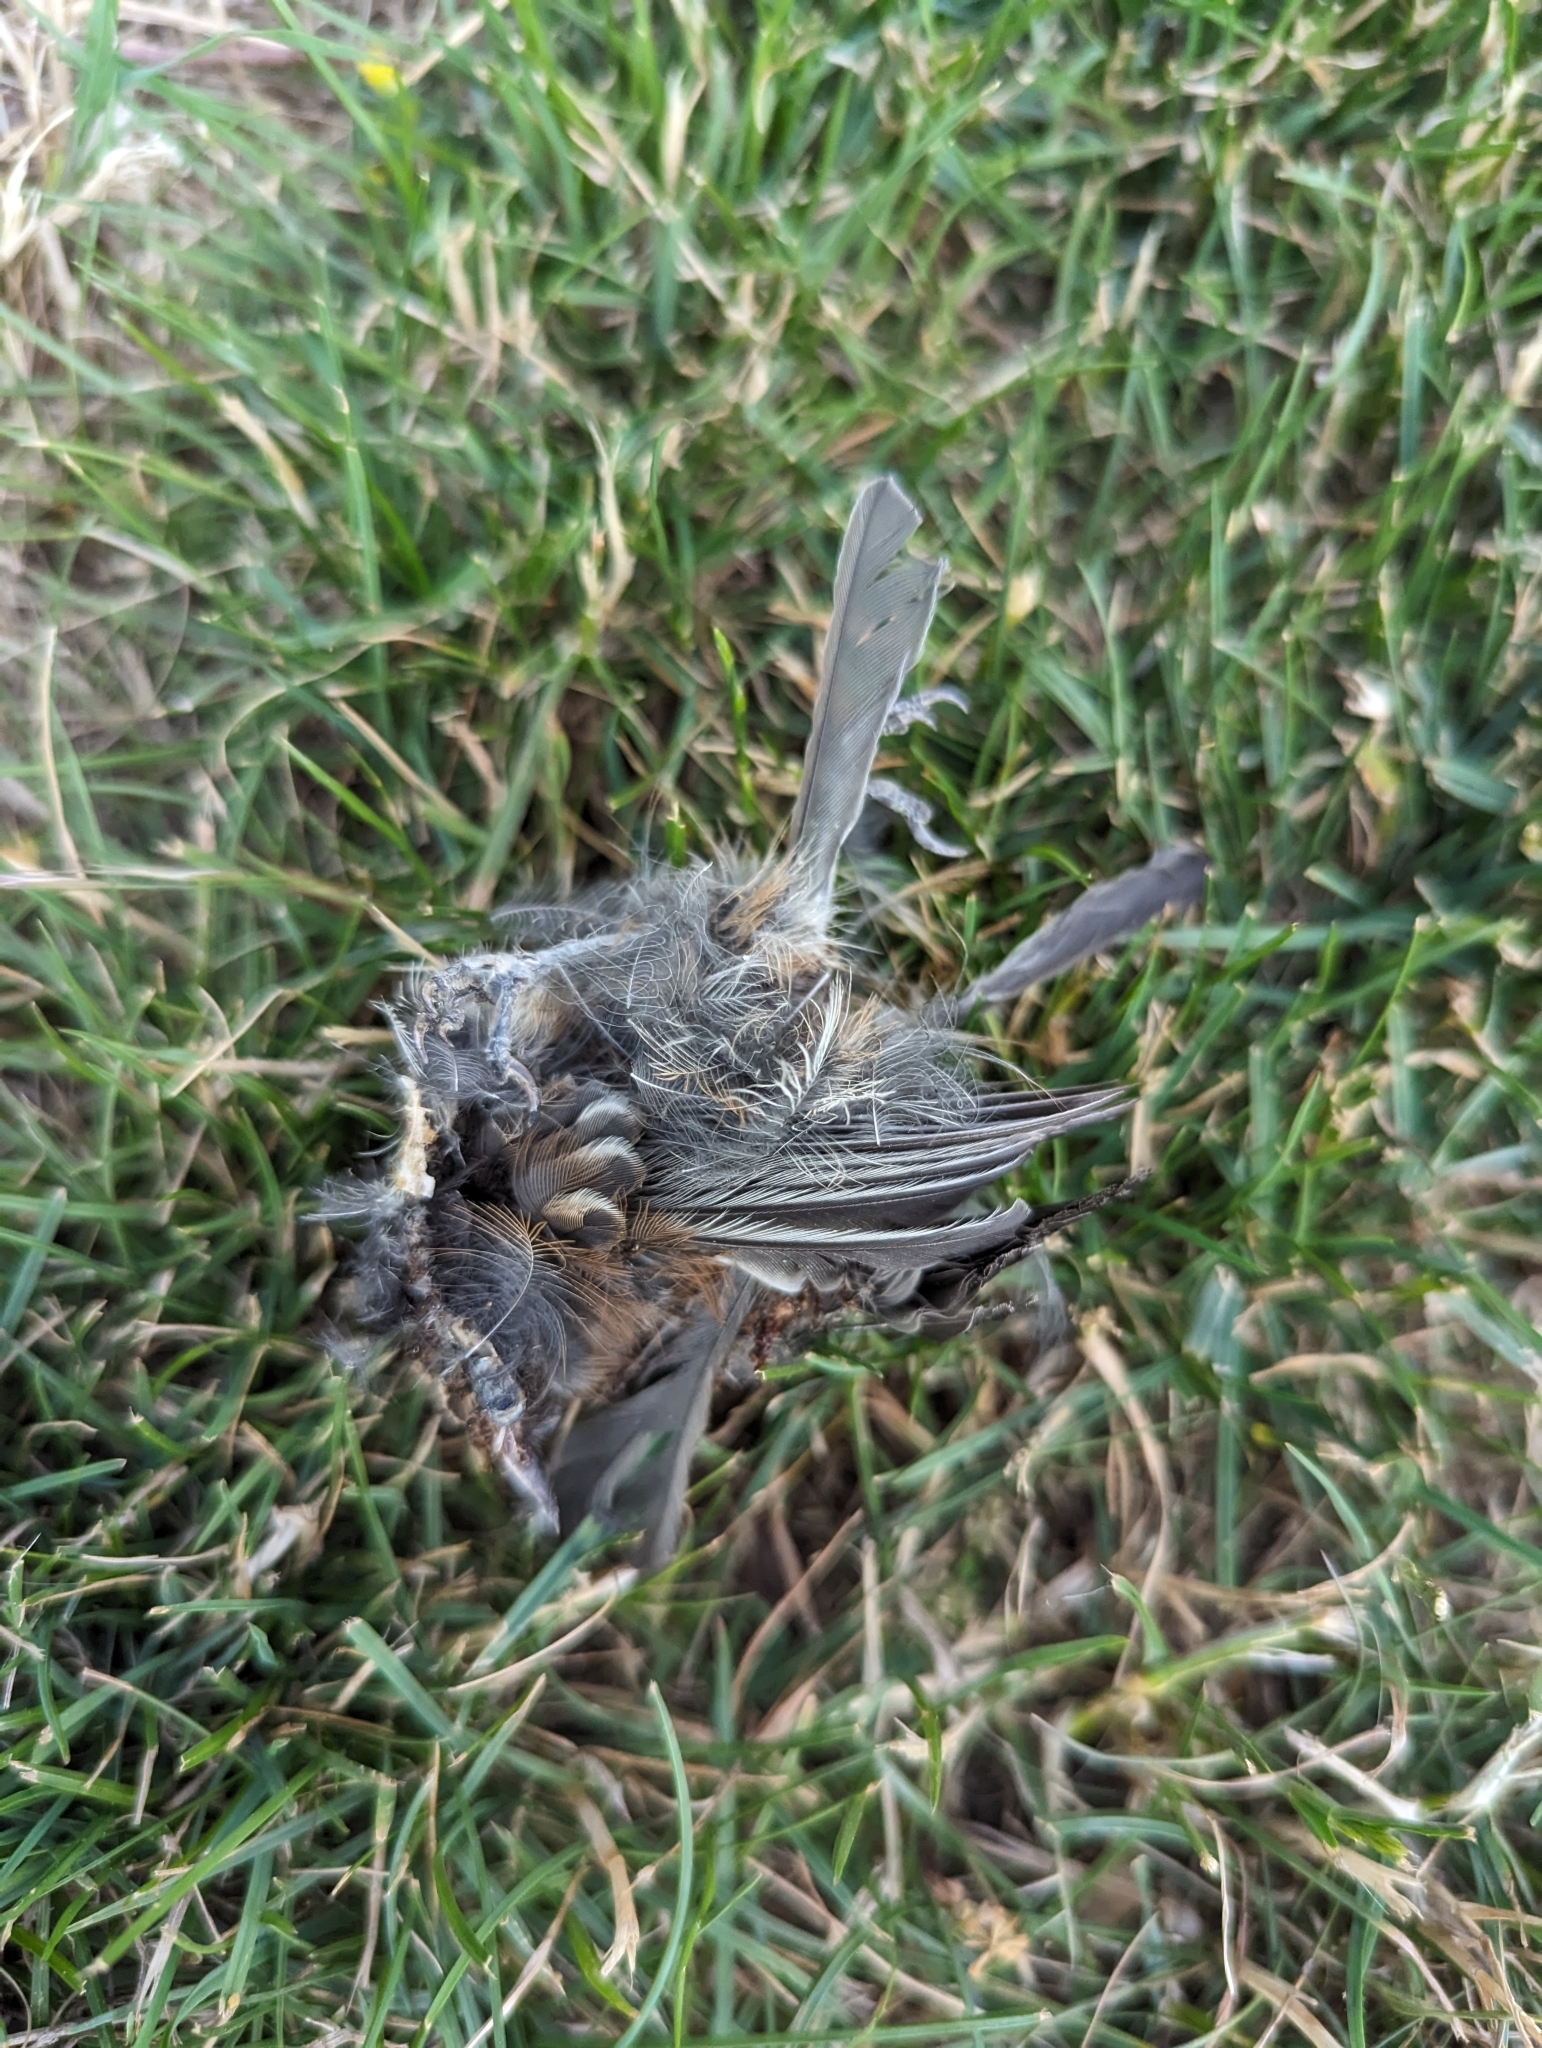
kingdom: Animalia
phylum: Chordata
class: Aves
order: Passeriformes
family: Paridae
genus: Poecile
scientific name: Poecile rufescens
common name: Chestnut-backed chickadee
